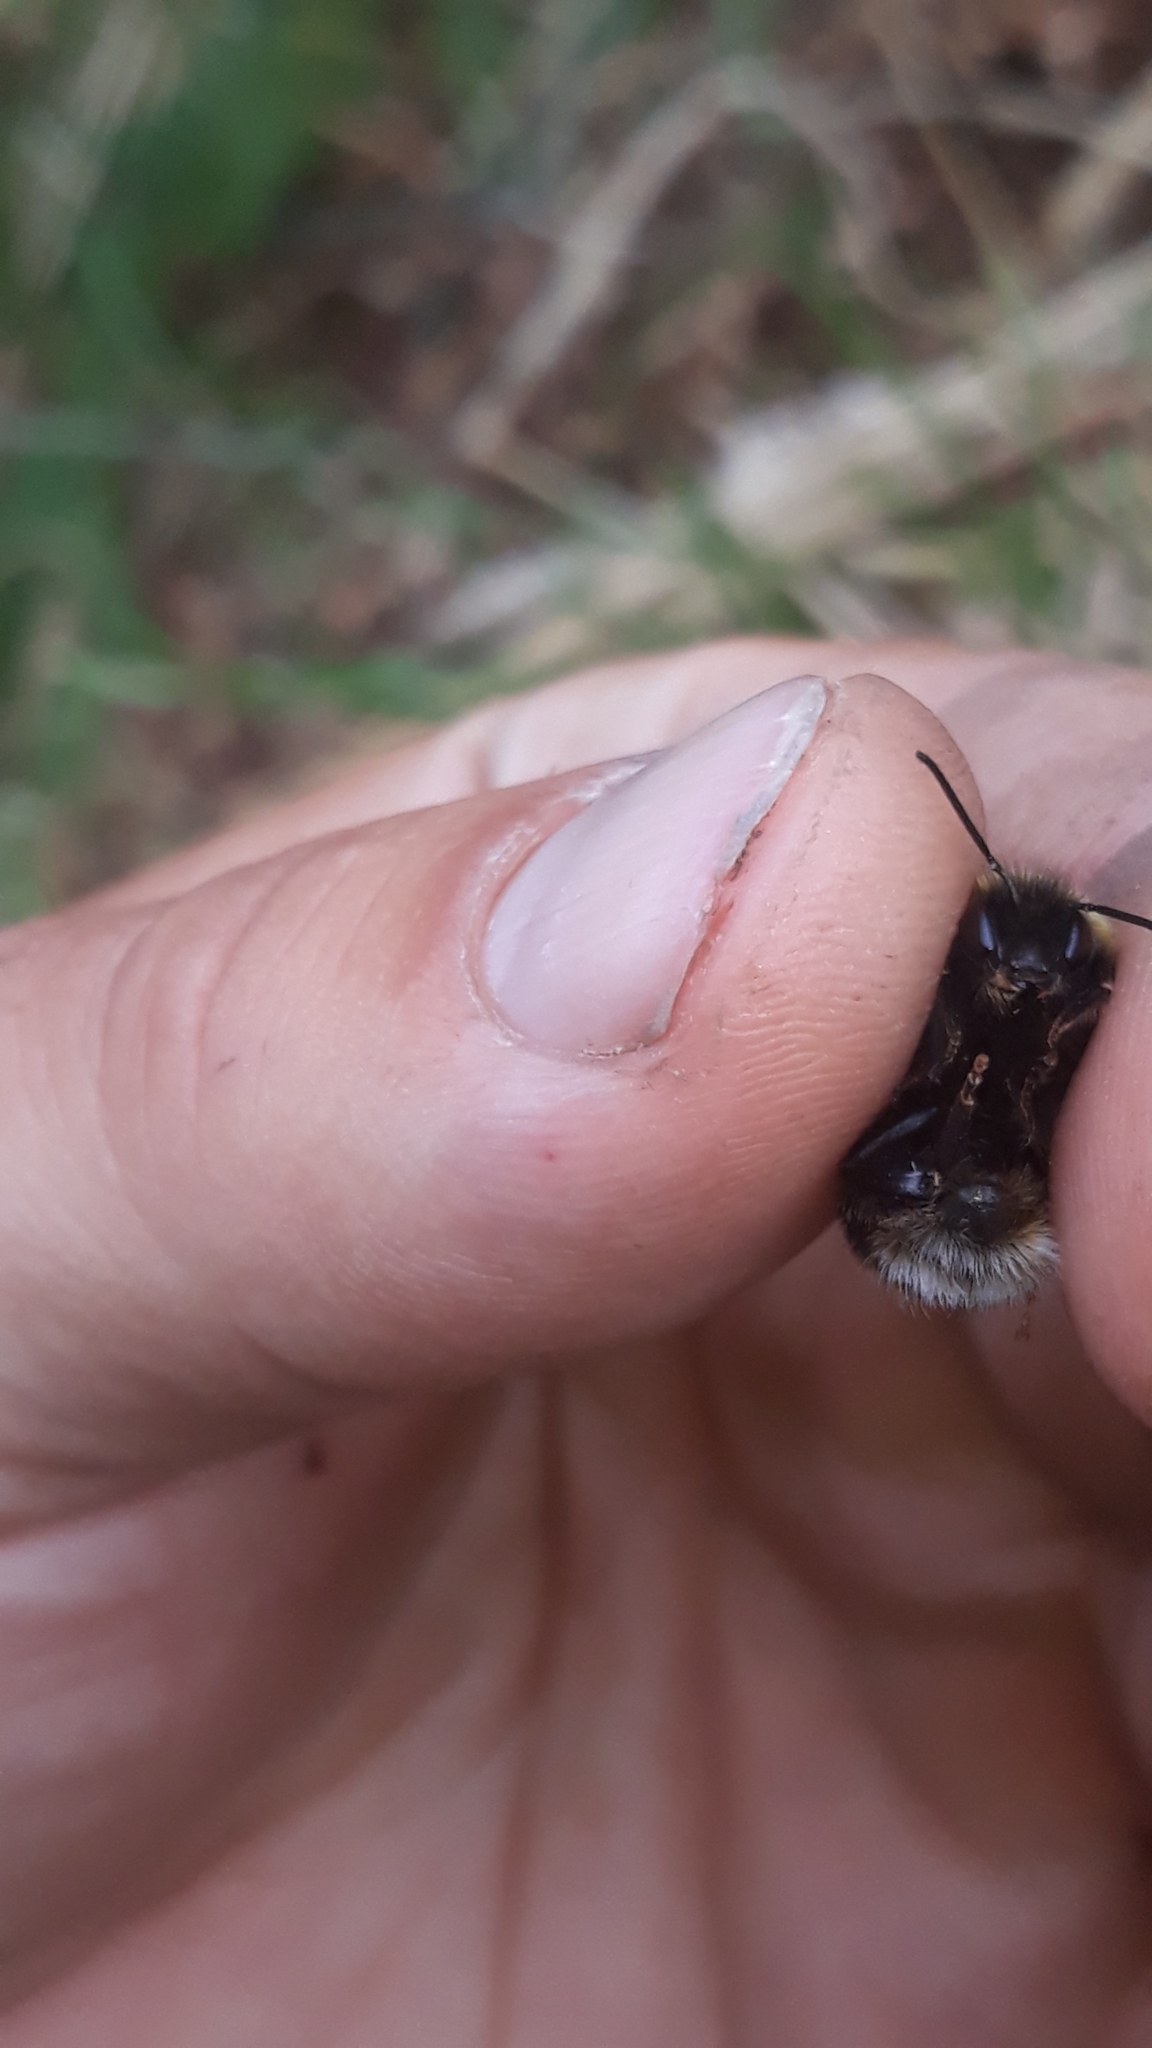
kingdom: Animalia
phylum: Arthropoda
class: Insecta
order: Hymenoptera
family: Apidae
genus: Bombus
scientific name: Bombus terrestris
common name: Buff-tailed bumblebee
